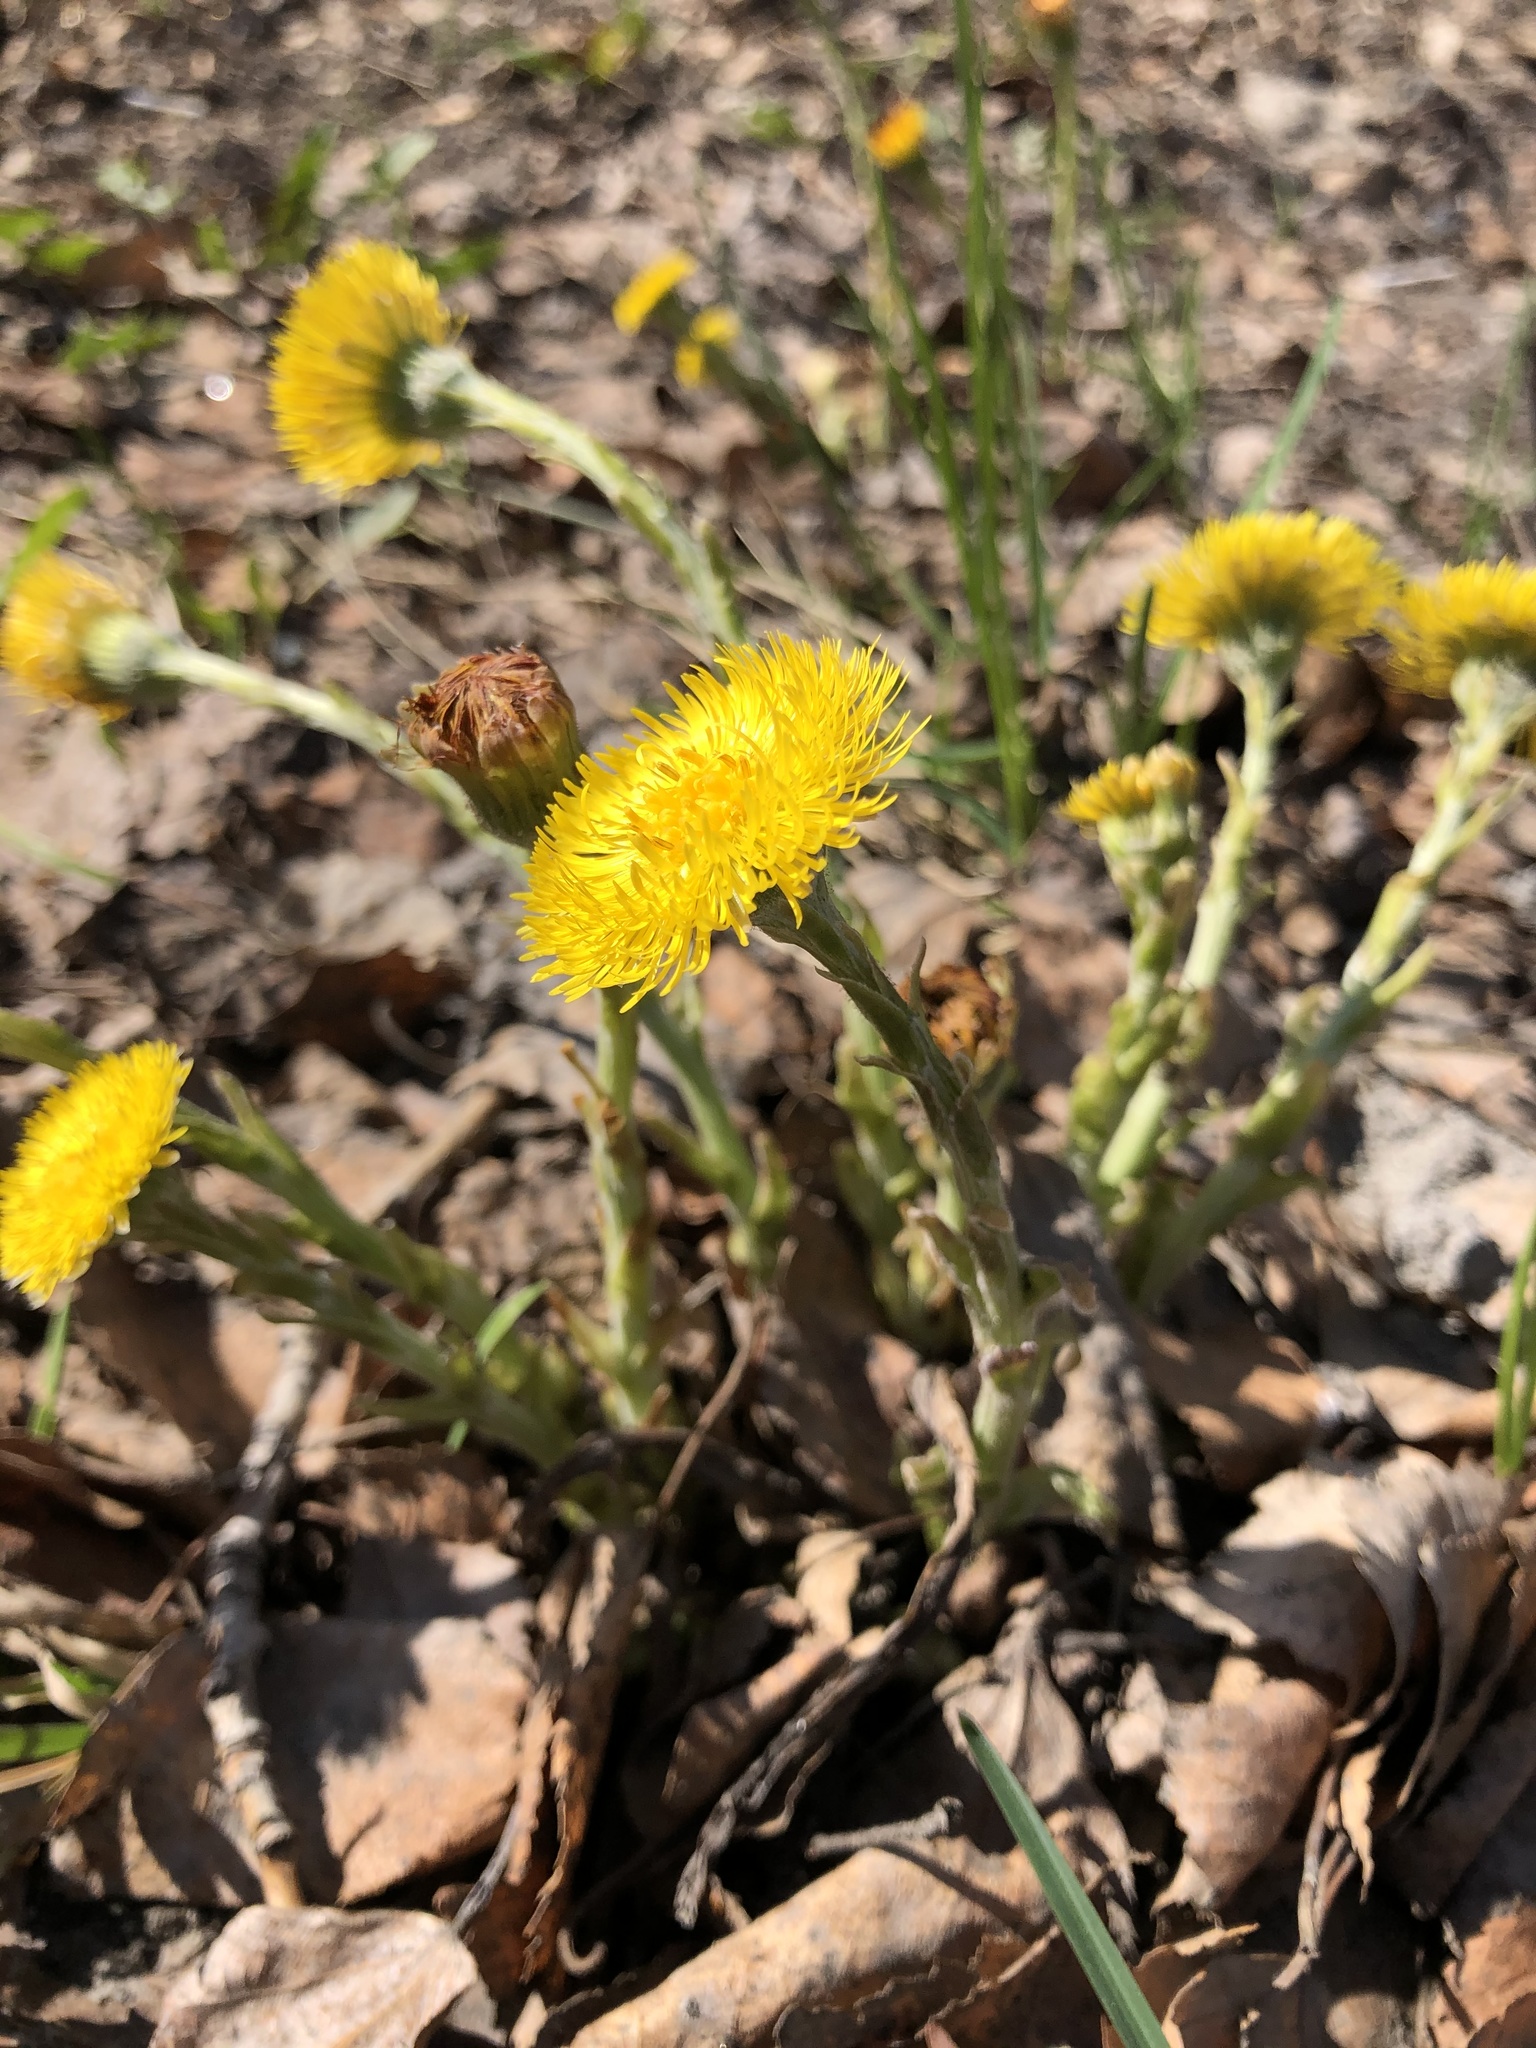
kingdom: Plantae
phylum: Tracheophyta
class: Magnoliopsida
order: Asterales
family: Asteraceae
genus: Tussilago
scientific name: Tussilago farfara
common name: Coltsfoot
